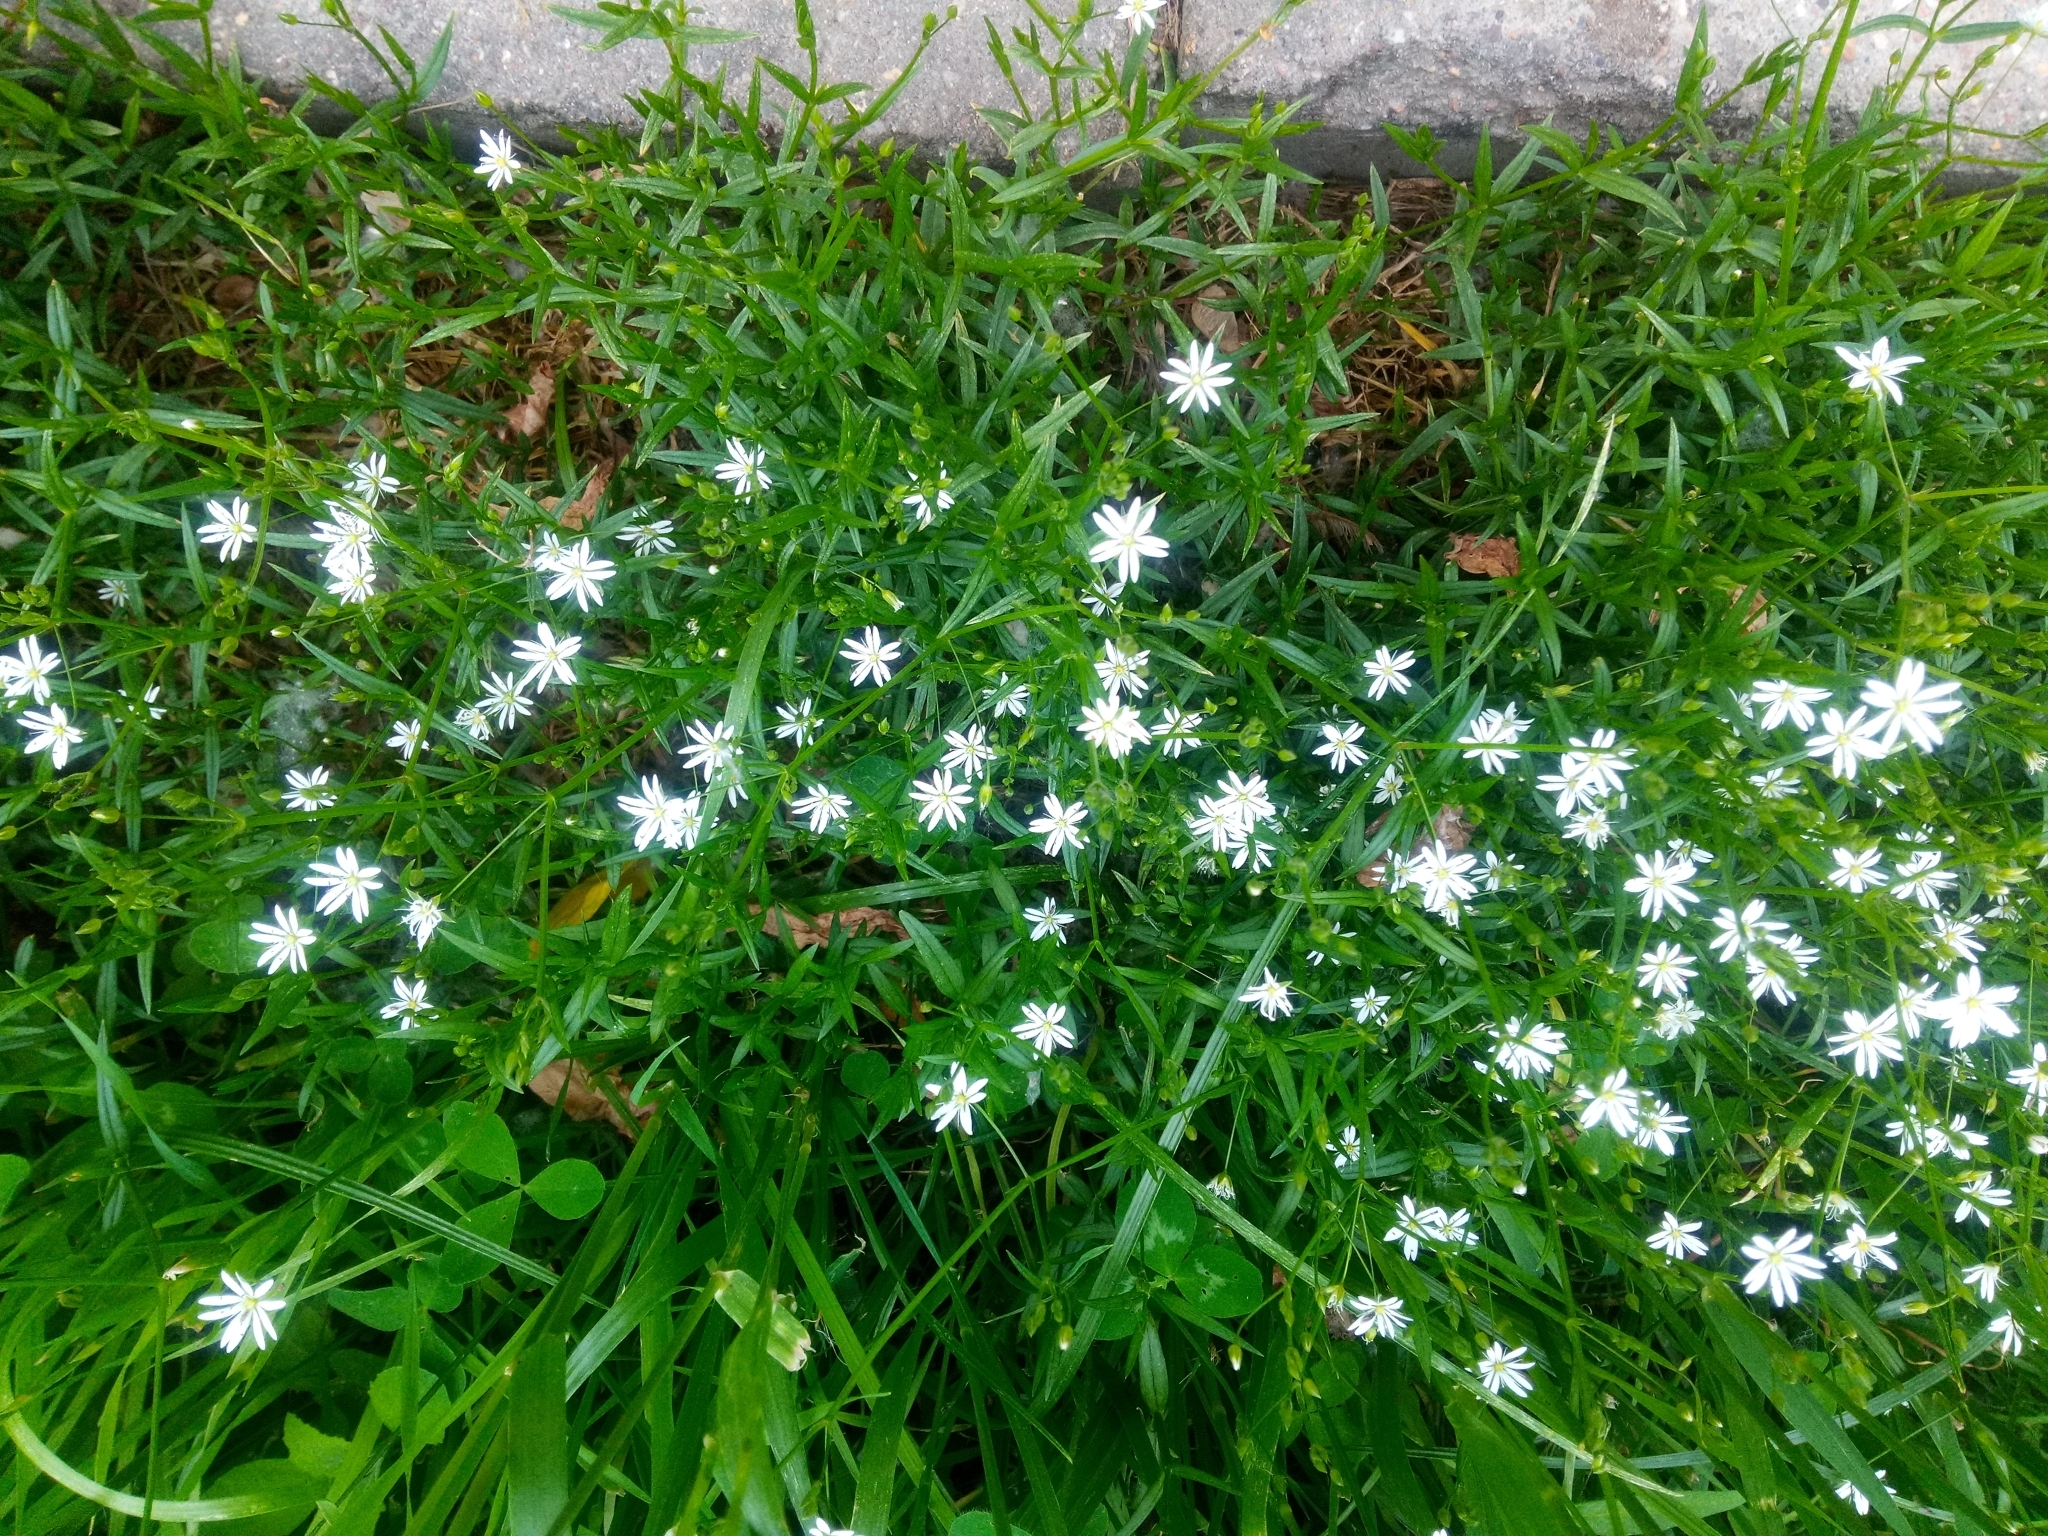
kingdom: Plantae
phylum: Tracheophyta
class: Magnoliopsida
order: Caryophyllales
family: Caryophyllaceae
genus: Stellaria
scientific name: Stellaria graminea
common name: Grass-like starwort
